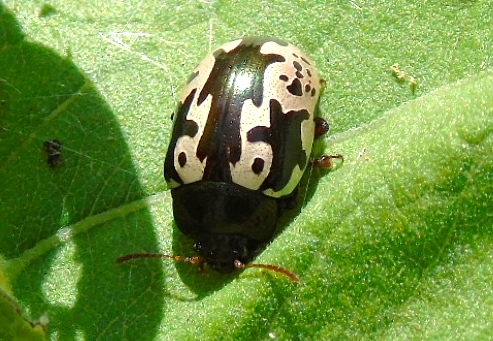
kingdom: Animalia
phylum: Arthropoda
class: Insecta
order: Coleoptera
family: Chrysomelidae
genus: Calligrapha
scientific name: Calligrapha intermedia
